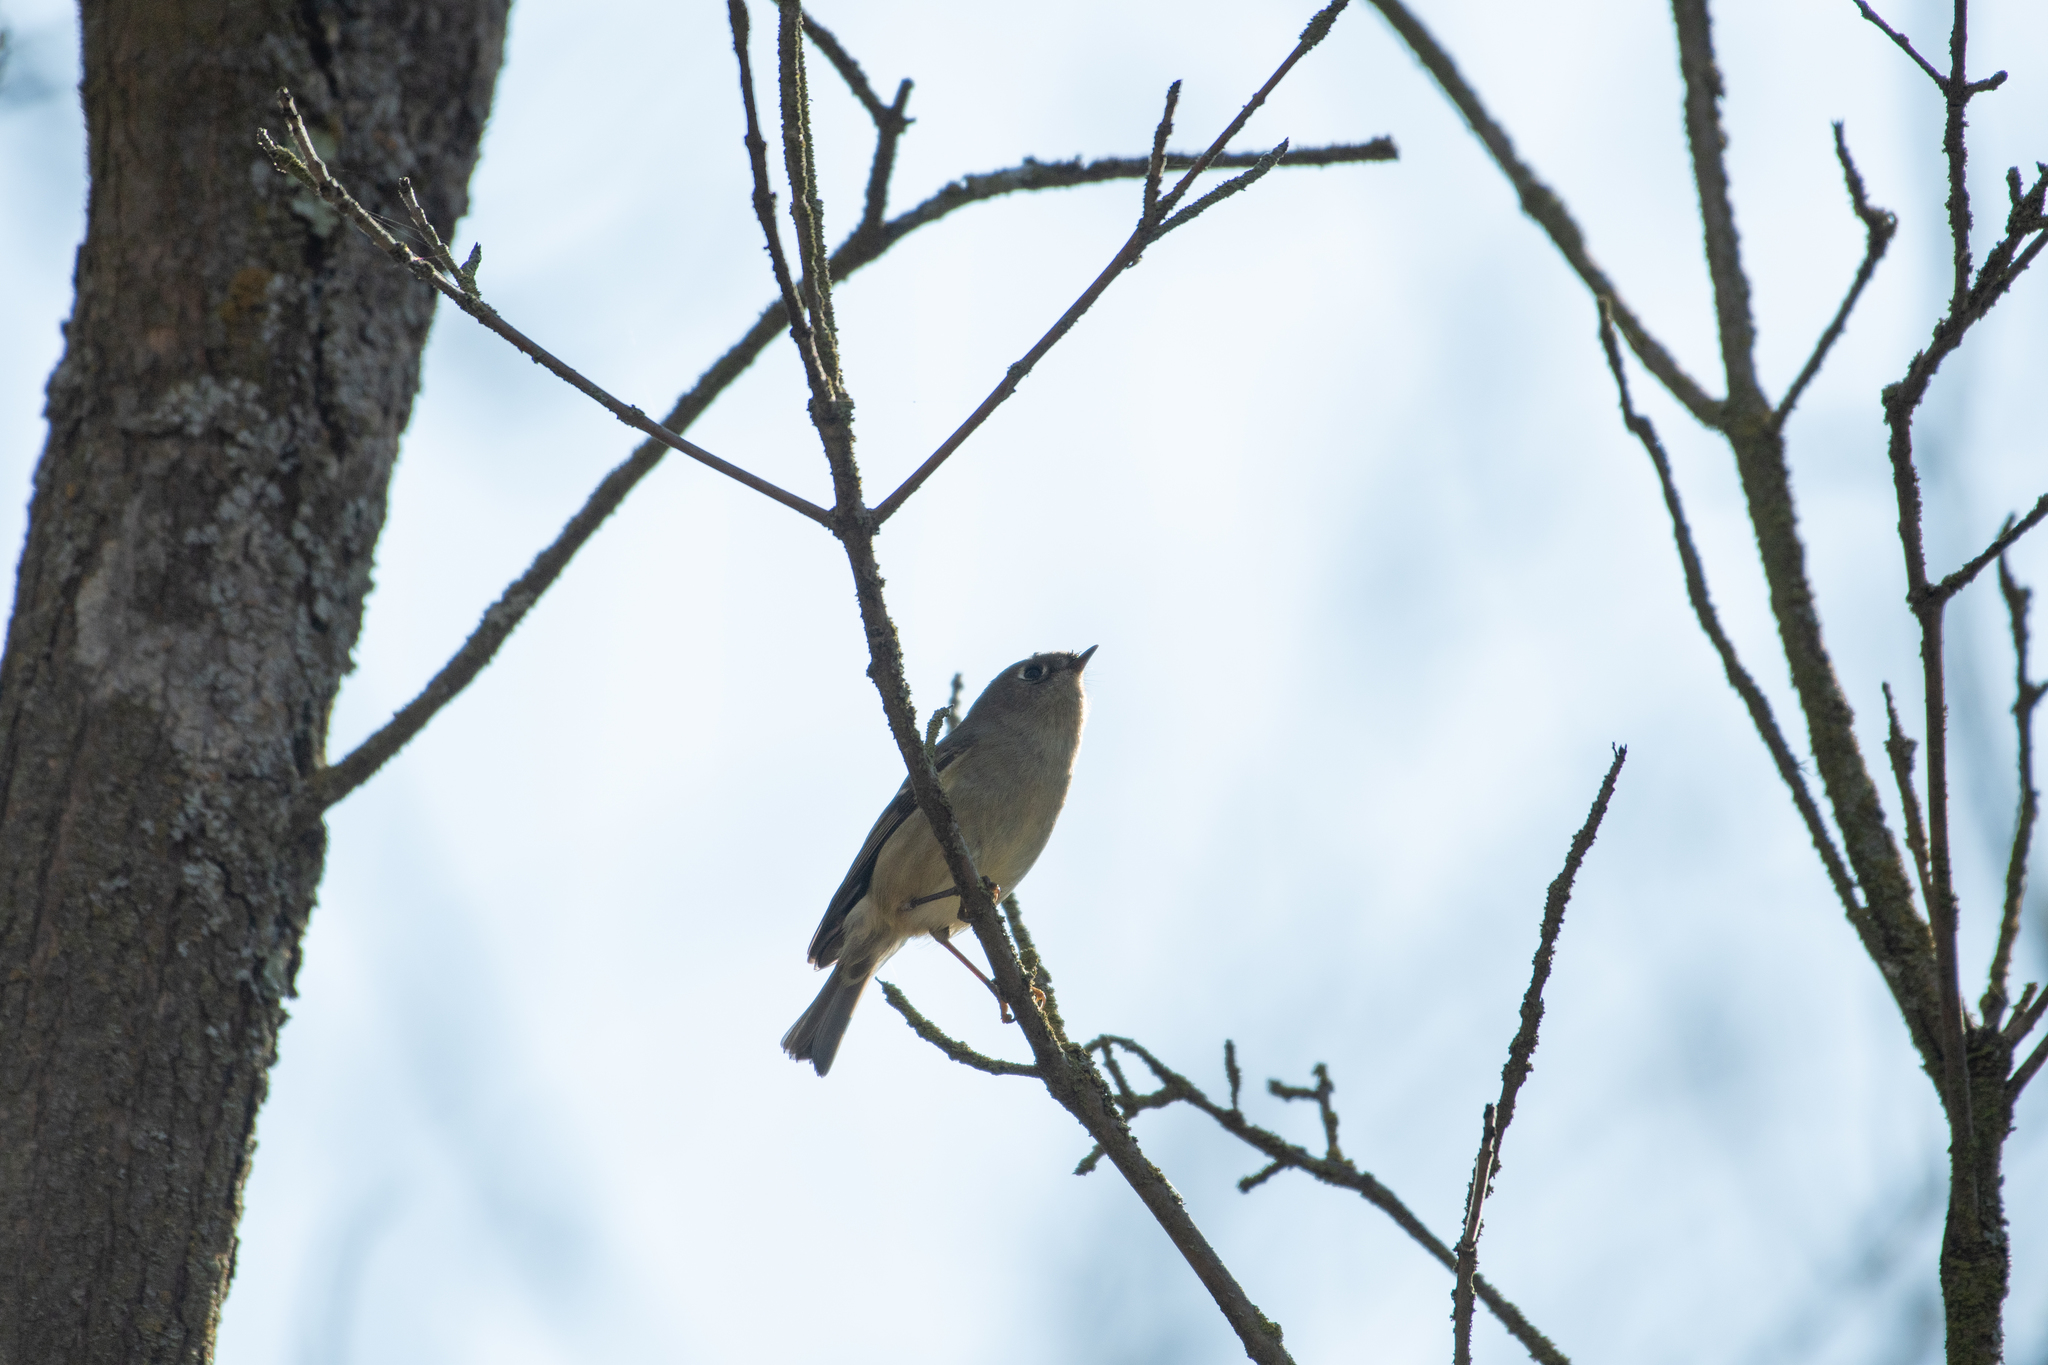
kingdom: Animalia
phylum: Chordata
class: Aves
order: Passeriformes
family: Regulidae
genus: Regulus
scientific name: Regulus calendula
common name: Ruby-crowned kinglet
